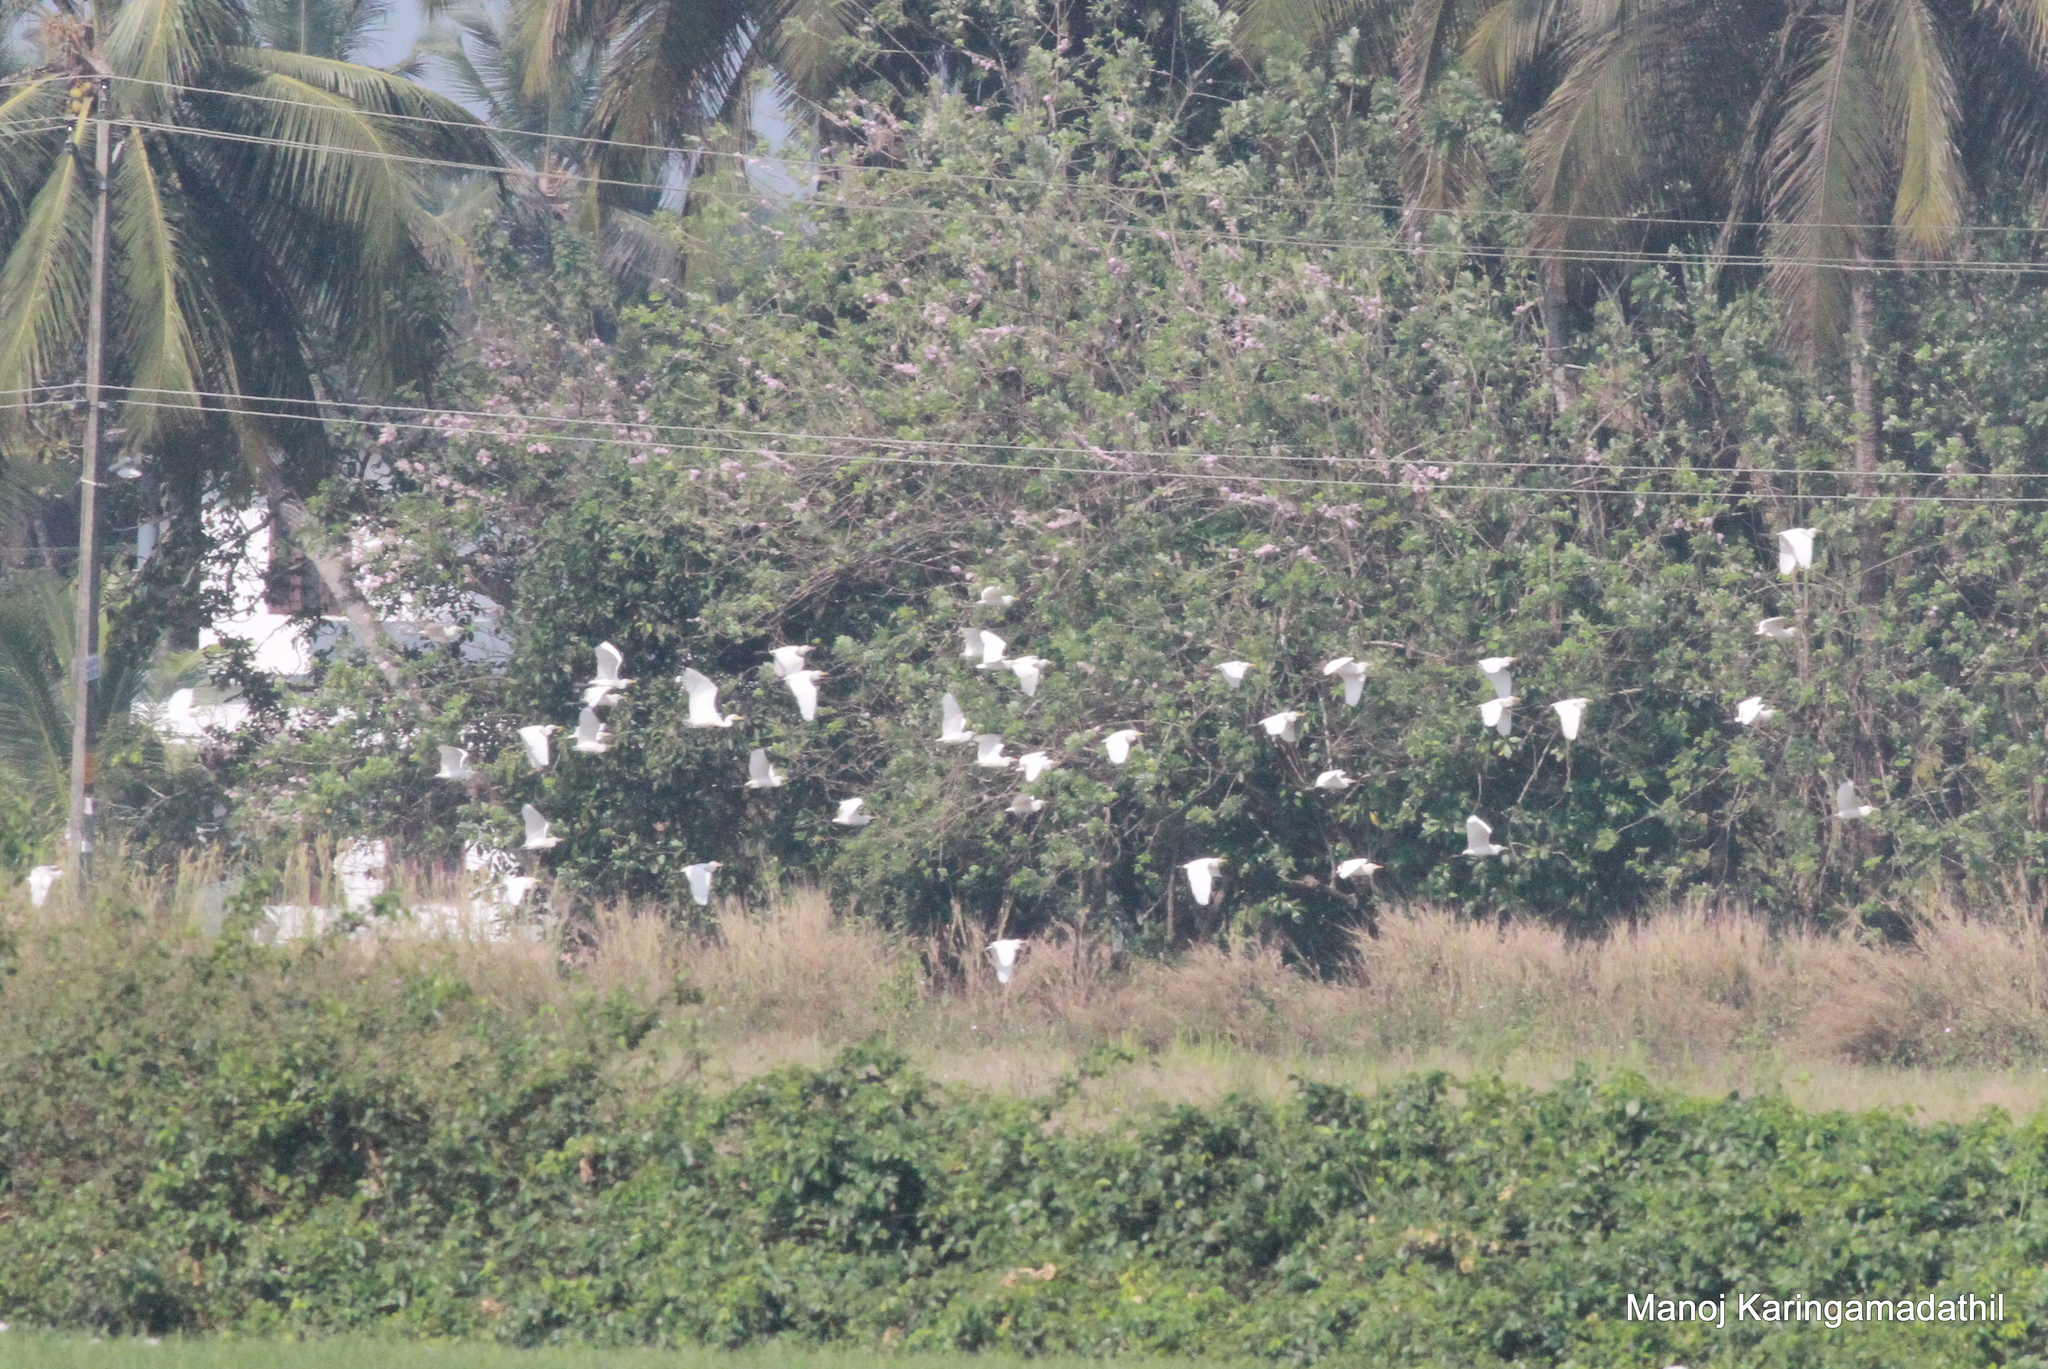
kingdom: Animalia
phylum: Chordata
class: Aves
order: Pelecaniformes
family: Ardeidae
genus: Bubulcus
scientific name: Bubulcus coromandus
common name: Eastern cattle egret
